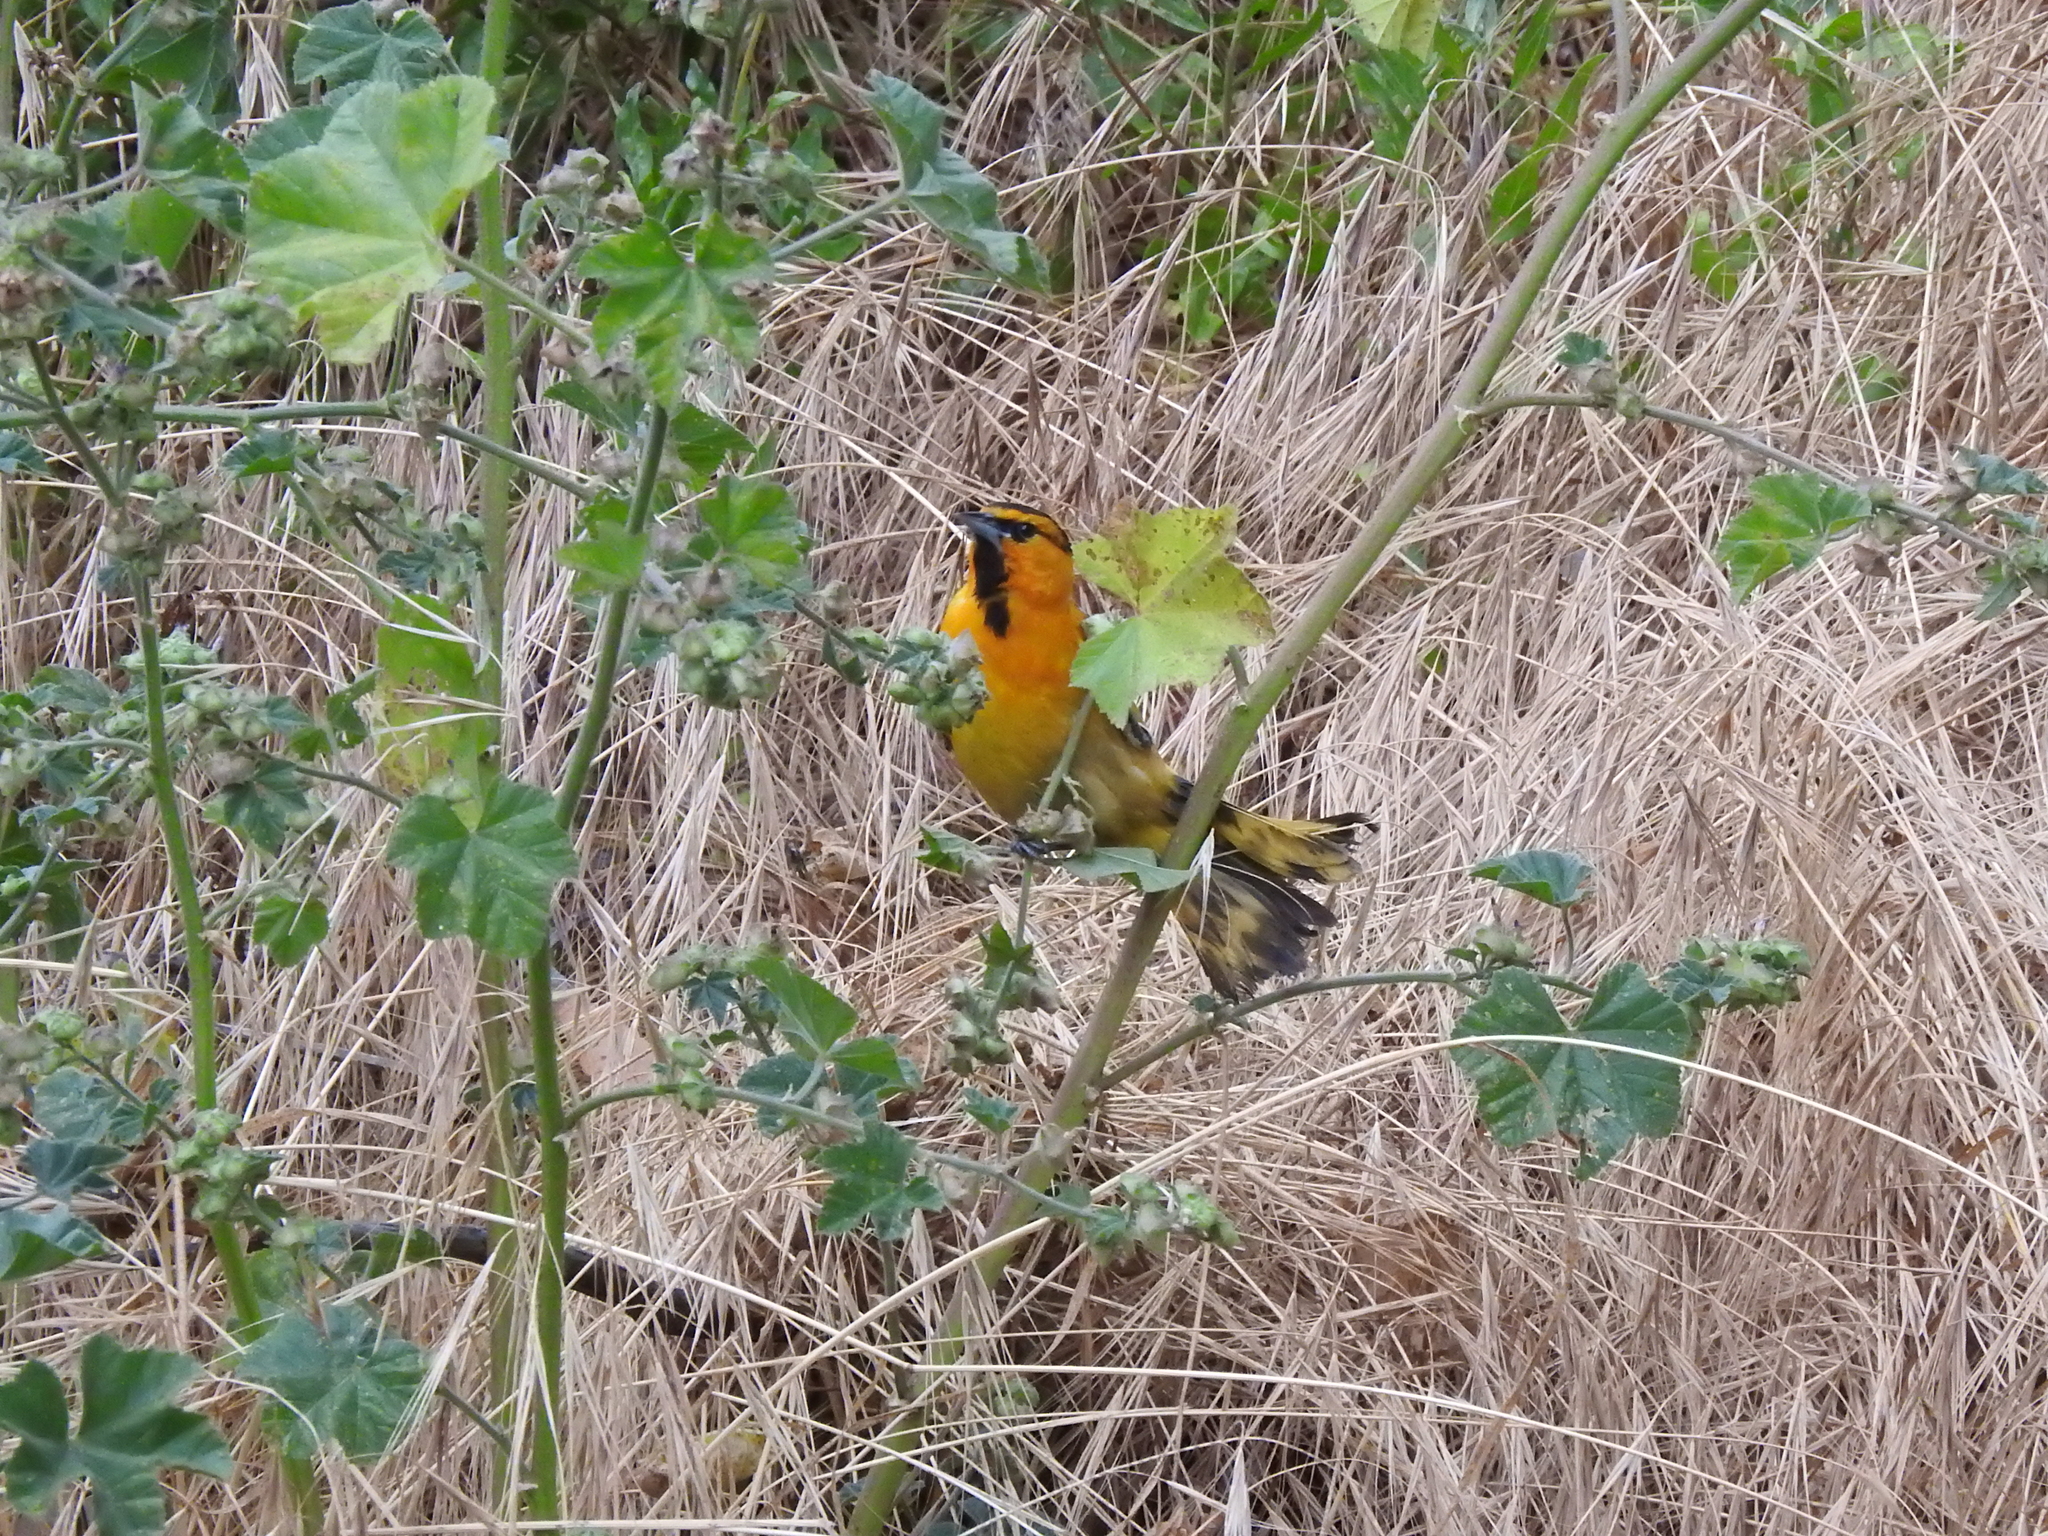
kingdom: Animalia
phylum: Chordata
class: Aves
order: Passeriformes
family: Icteridae
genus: Icterus
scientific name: Icterus bullockii
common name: Bullock's oriole
